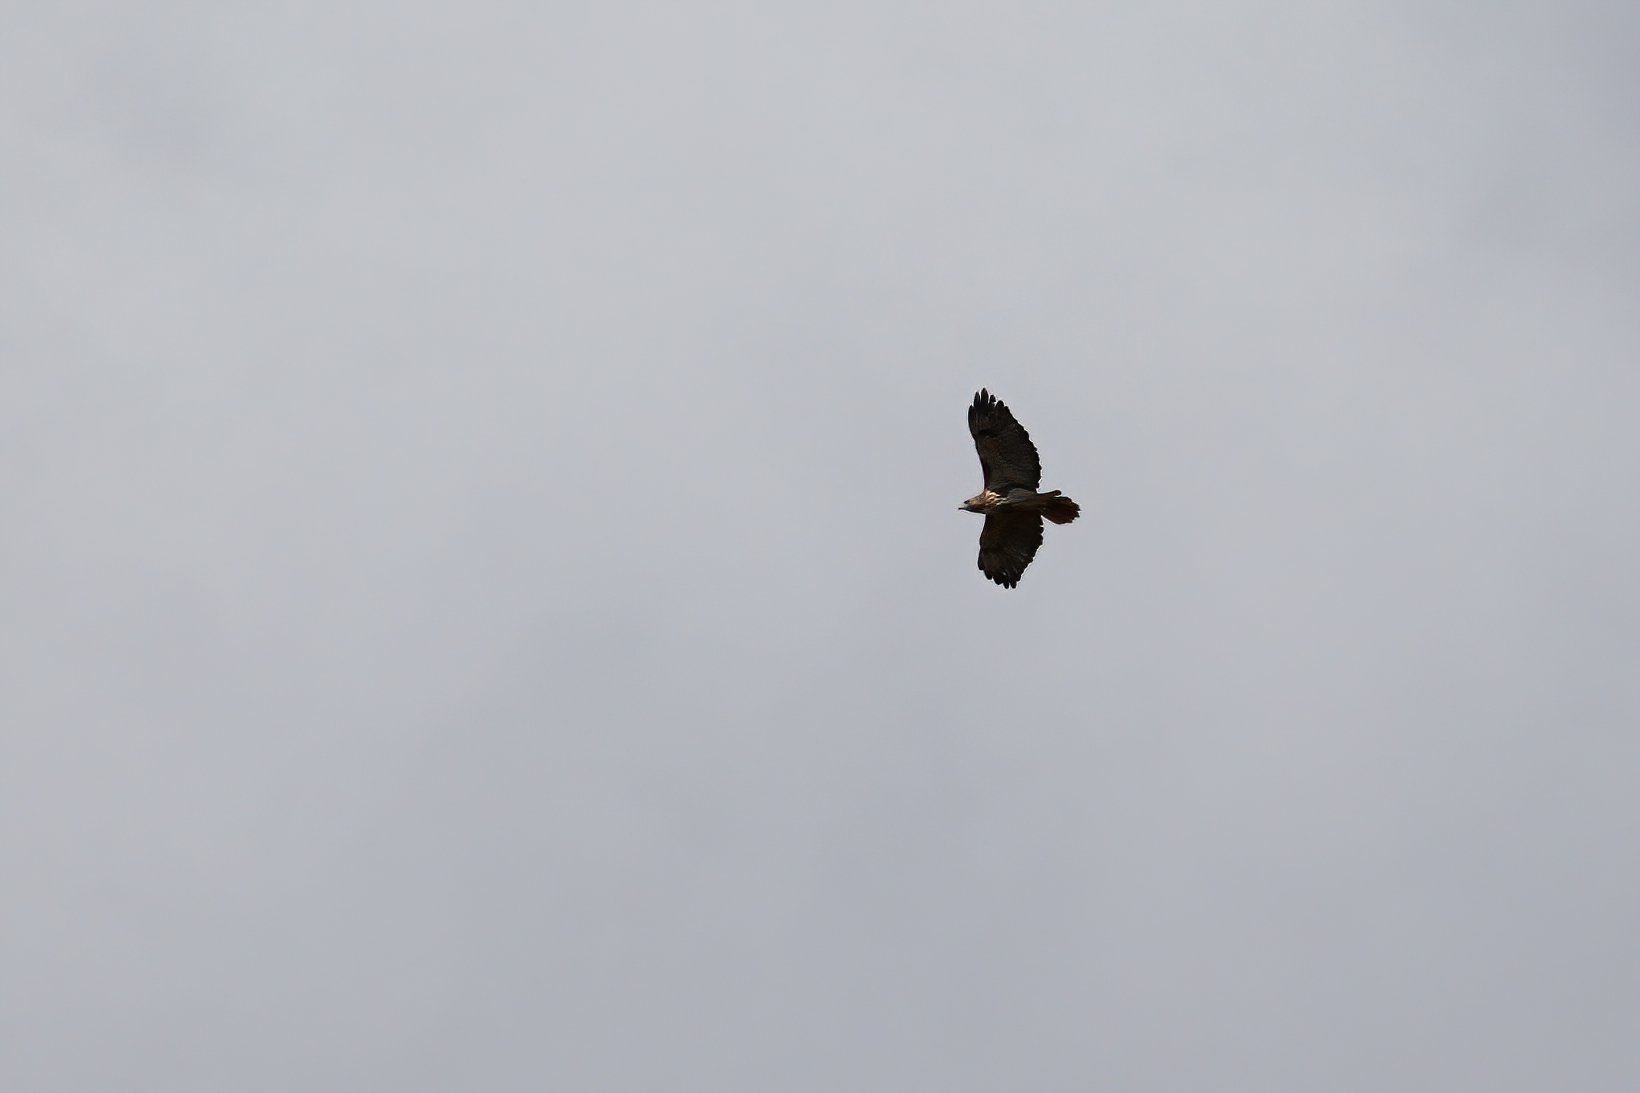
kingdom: Animalia
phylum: Chordata
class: Aves
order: Accipitriformes
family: Accipitridae
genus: Buteo
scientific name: Buteo jamaicensis
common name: Red-tailed hawk
